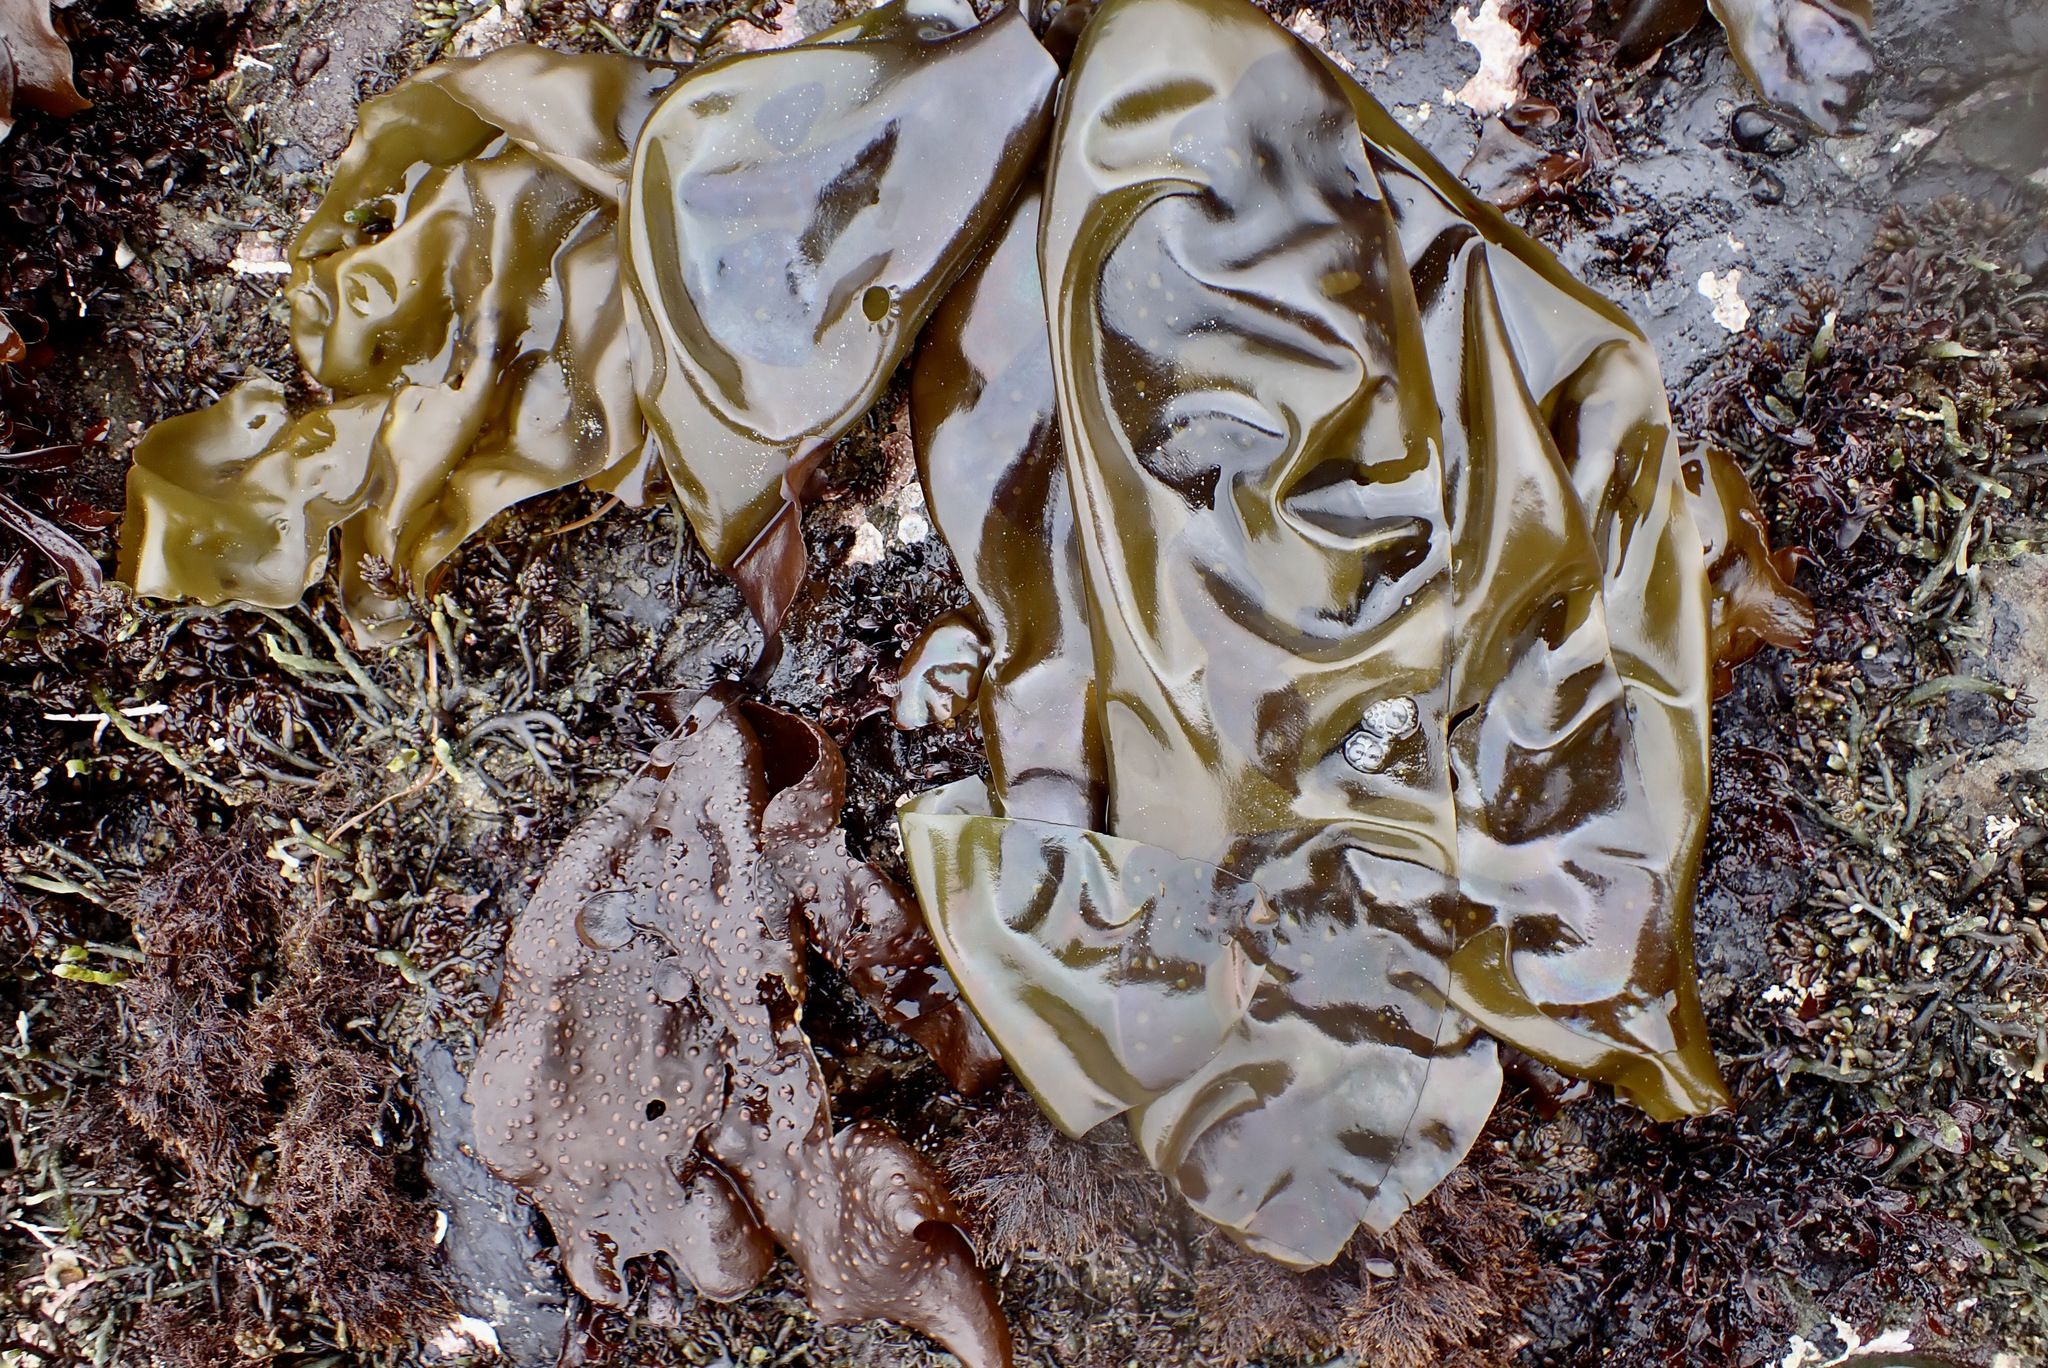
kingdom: Plantae
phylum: Rhodophyta
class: Florideophyceae
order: Gigartinales
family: Gigartinaceae
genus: Mazzaella
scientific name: Mazzaella flaccida
